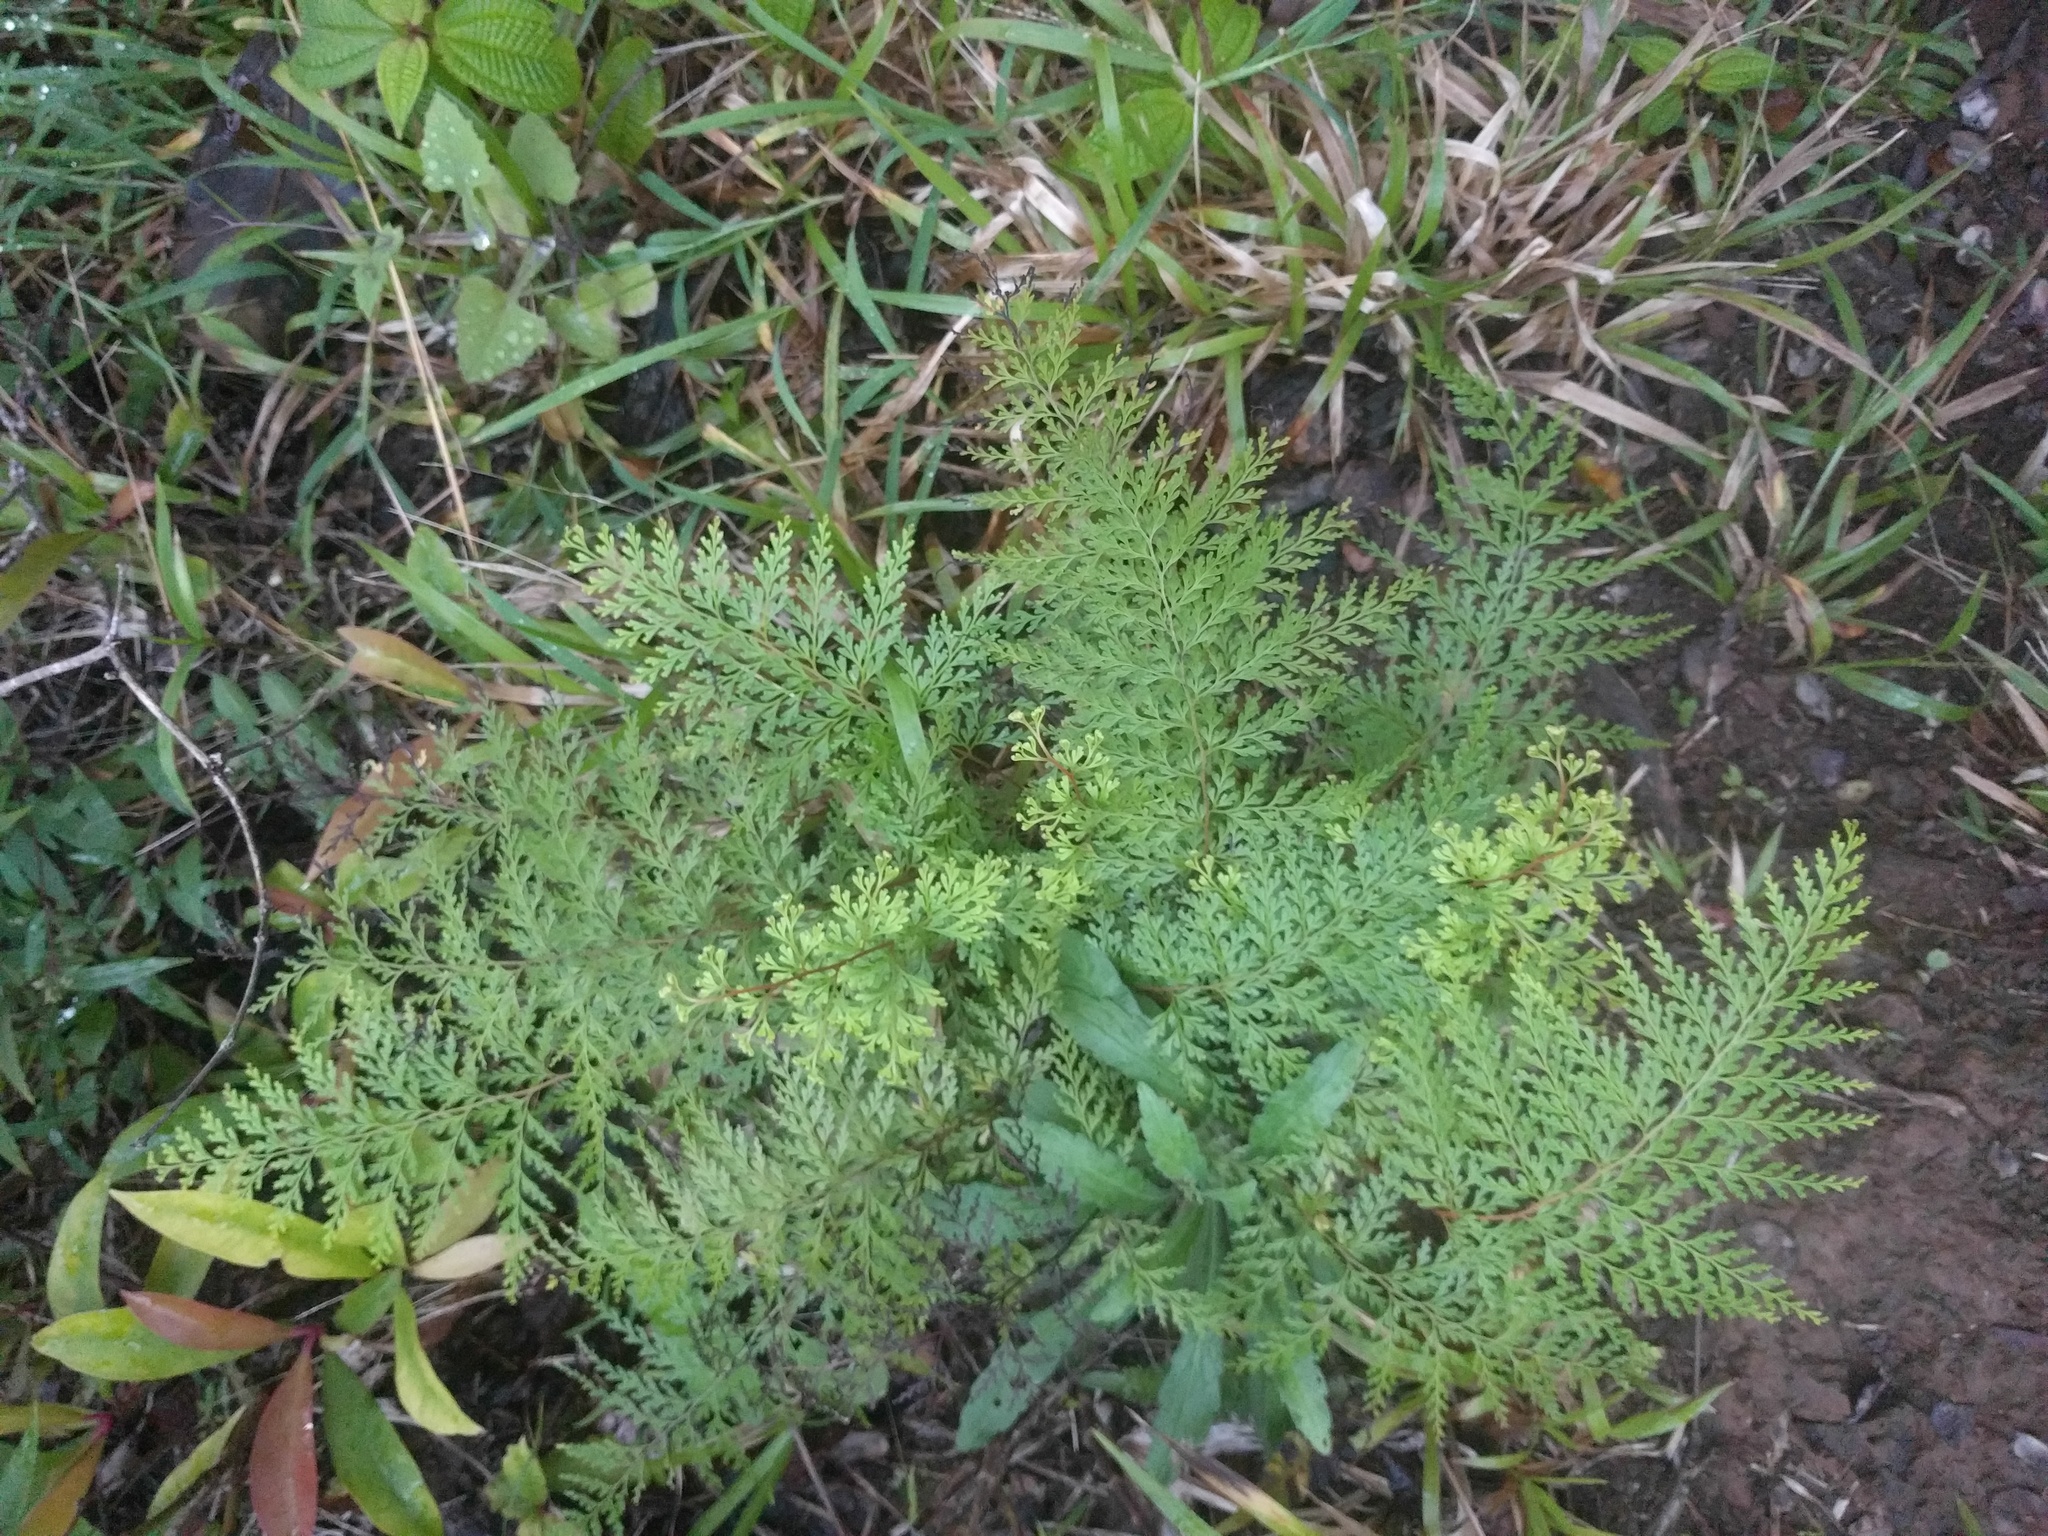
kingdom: Plantae
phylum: Tracheophyta
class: Polypodiopsida
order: Polypodiales
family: Lindsaeaceae
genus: Odontosoria
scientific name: Odontosoria chinensis
